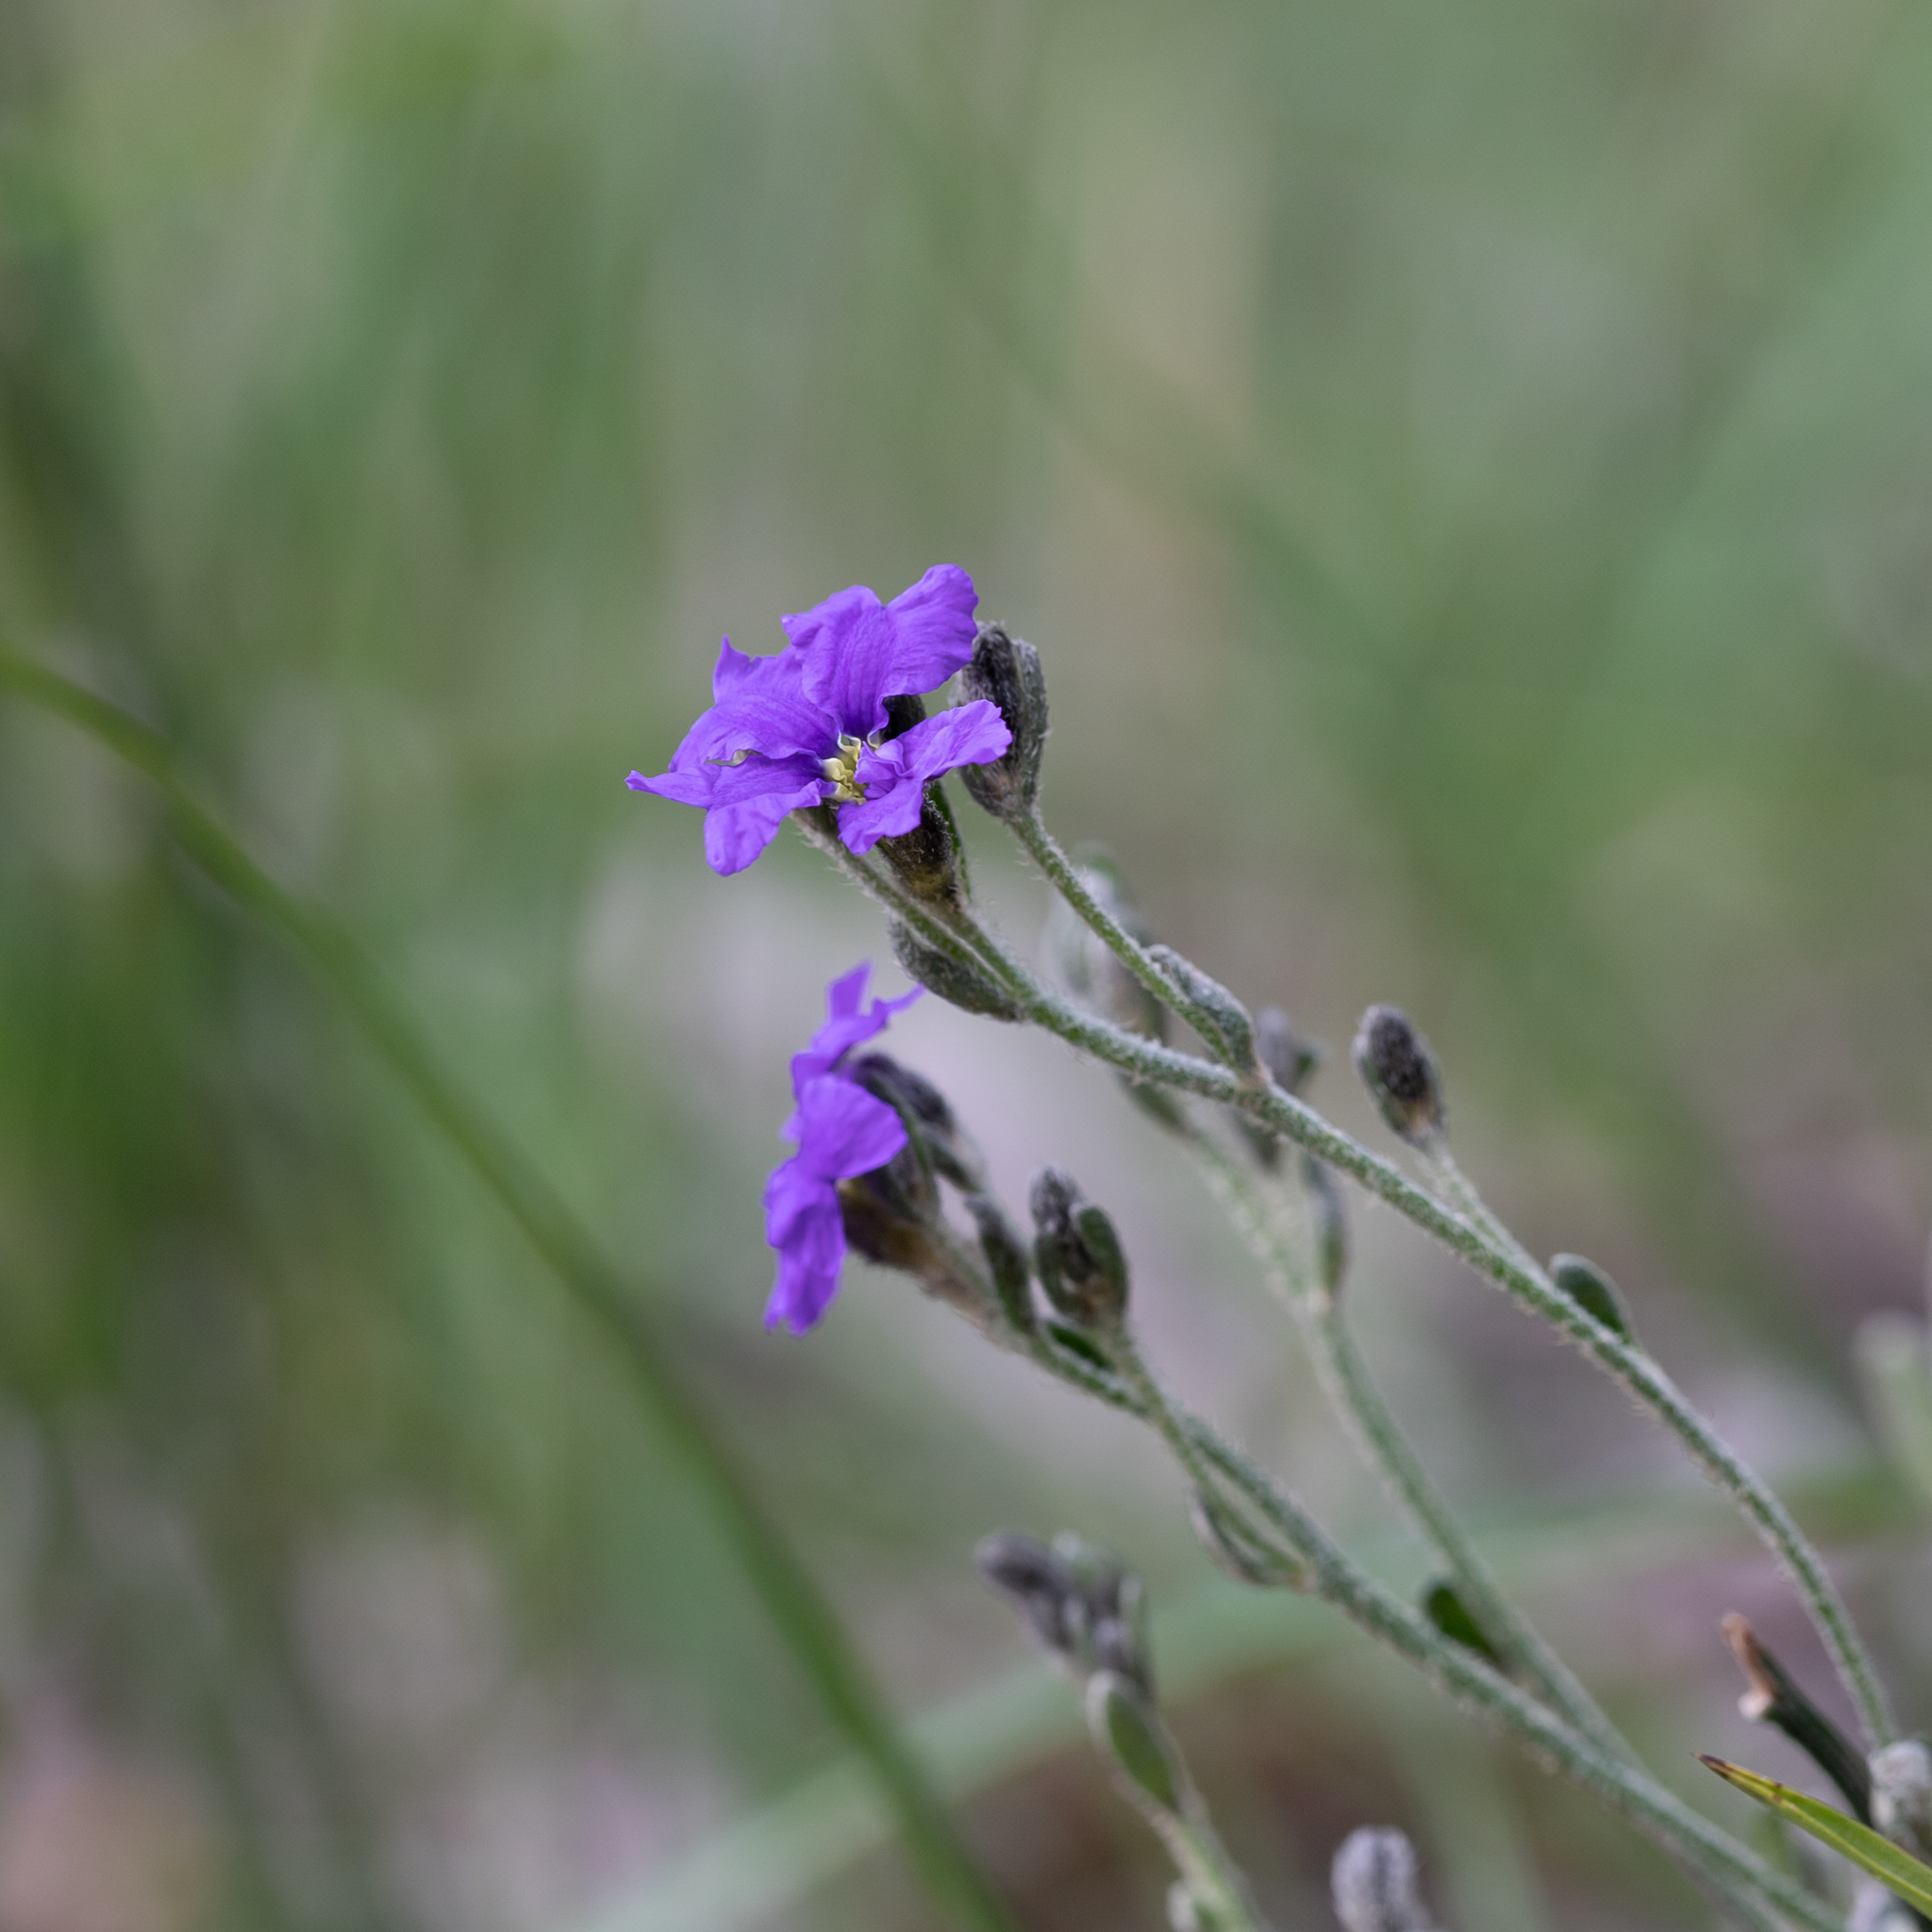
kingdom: Plantae
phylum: Tracheophyta
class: Magnoliopsida
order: Asterales
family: Goodeniaceae
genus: Dampiera
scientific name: Dampiera dysantha
